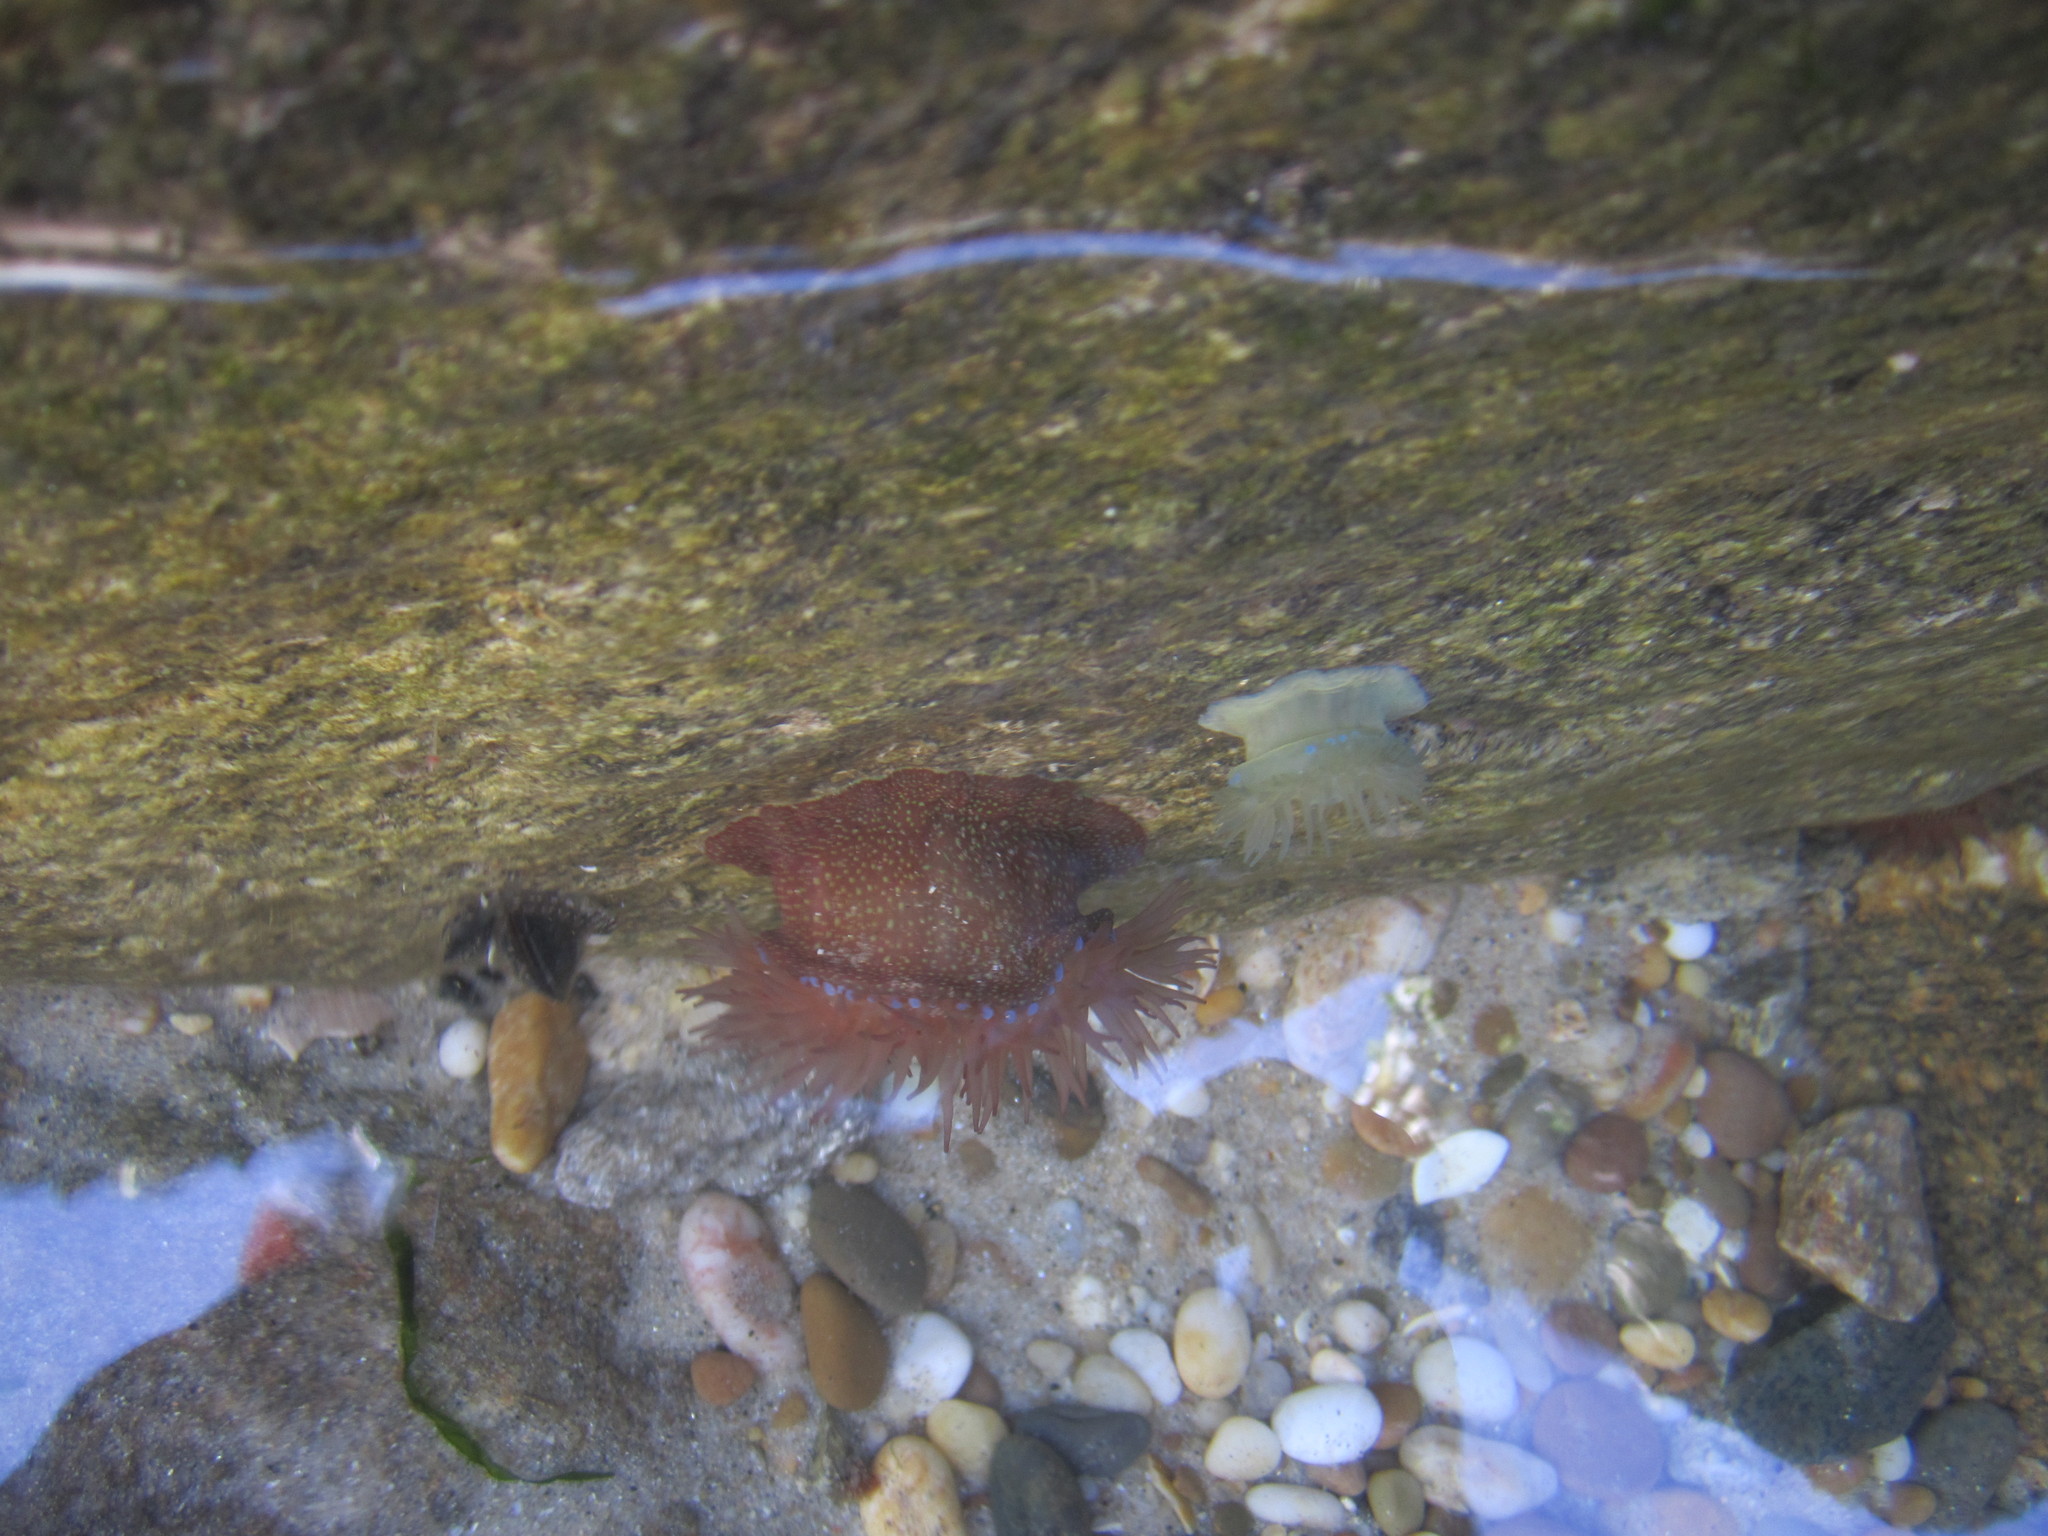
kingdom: Animalia
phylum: Cnidaria
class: Anthozoa
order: Actiniaria
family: Actiniidae
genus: Actinia
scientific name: Actinia fragacea
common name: Strawberry anemone
